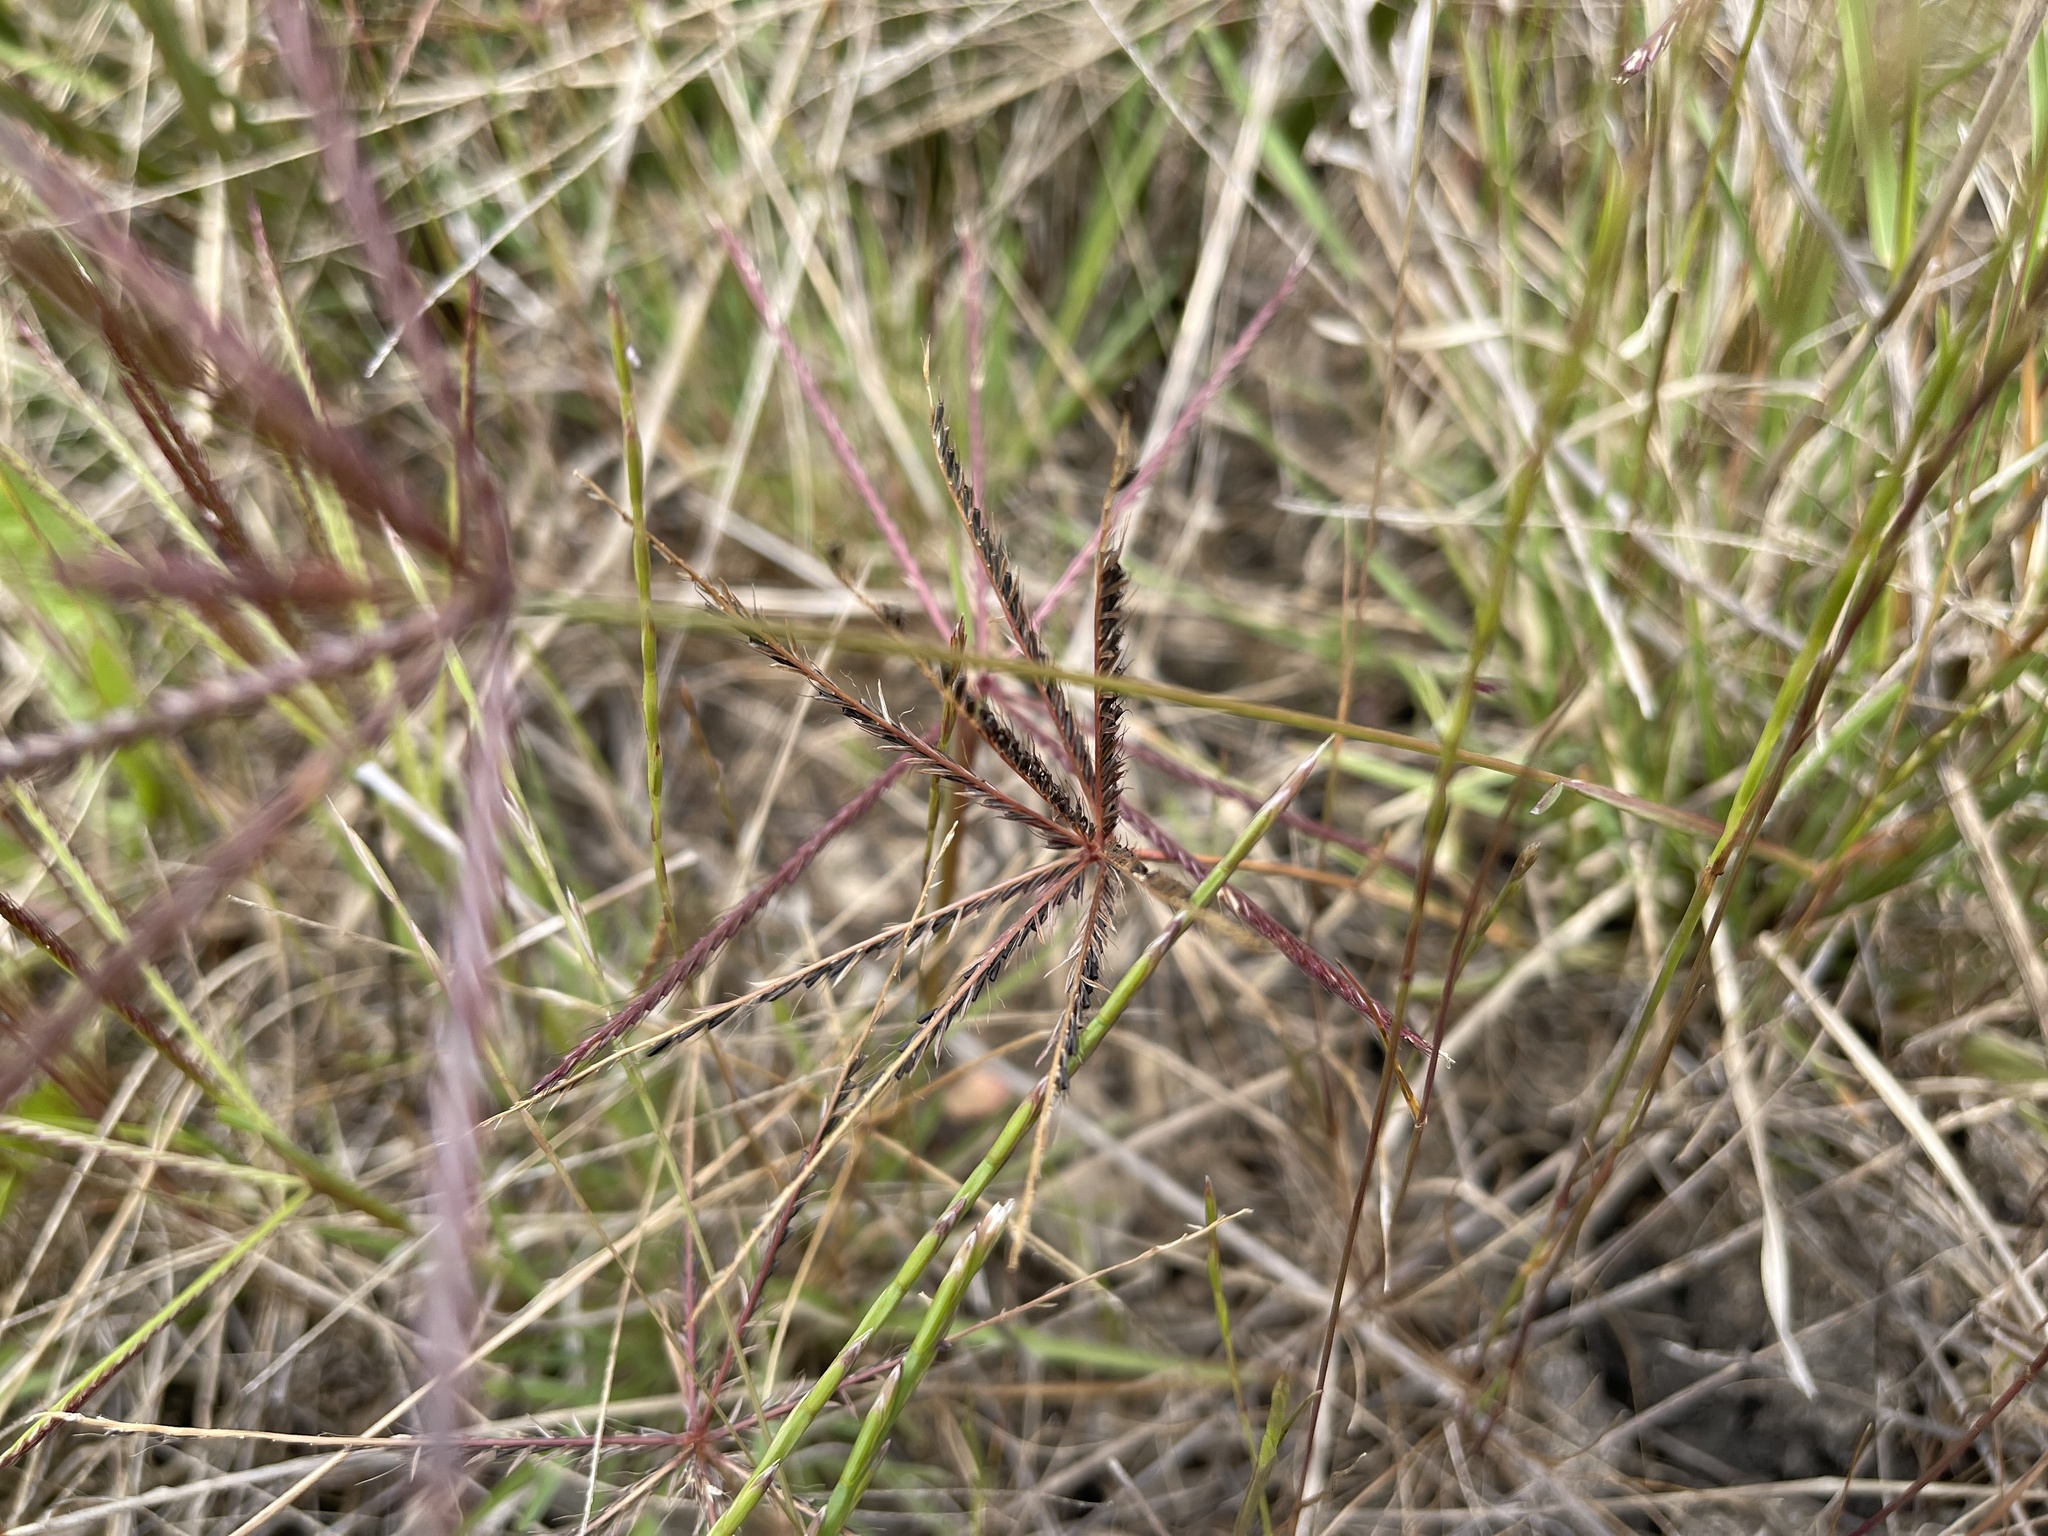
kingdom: Plantae
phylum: Tracheophyta
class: Liliopsida
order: Poales
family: Poaceae
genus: Chloris
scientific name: Chloris truncata
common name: Windmill-grass
